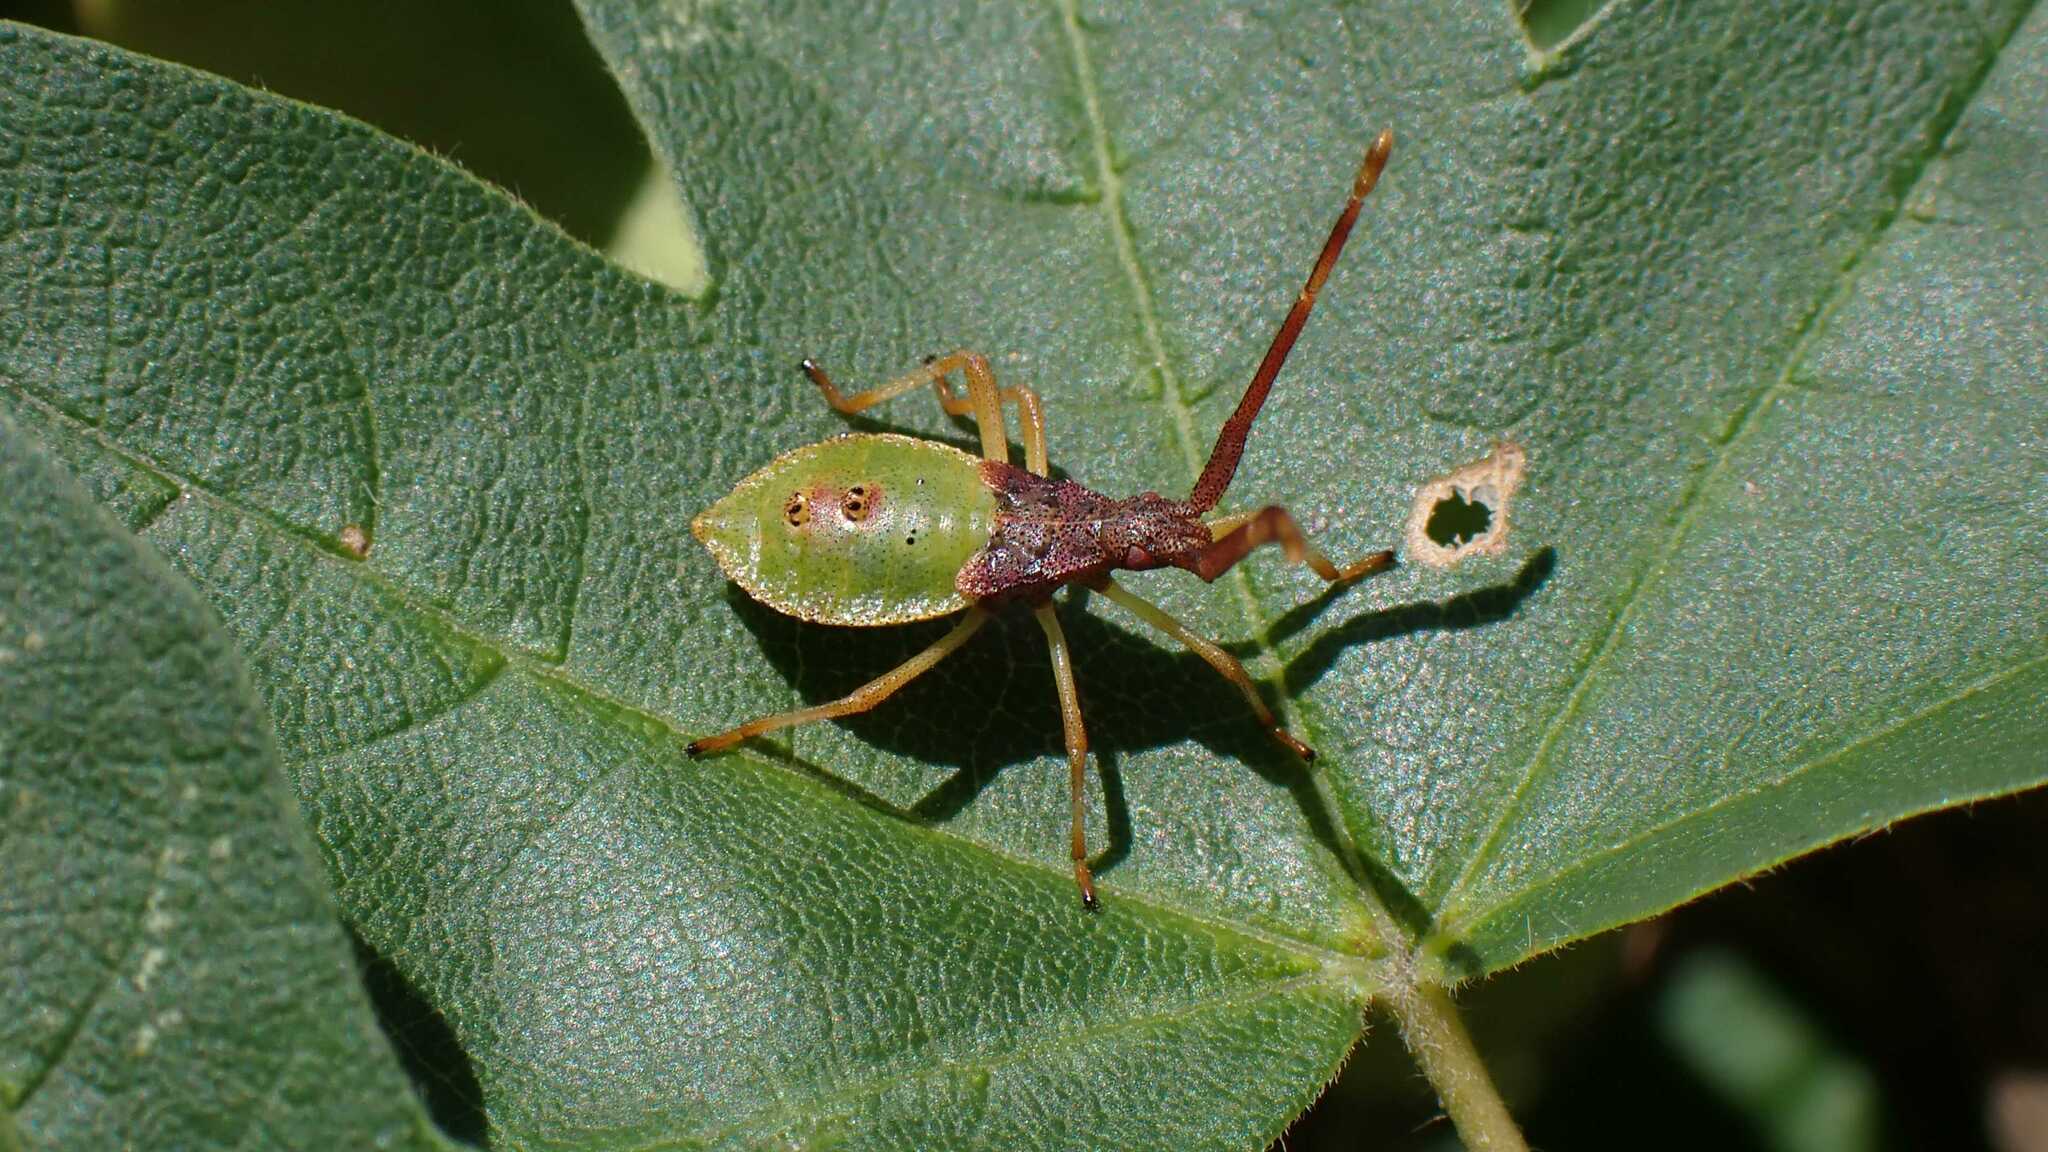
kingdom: Animalia
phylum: Arthropoda
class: Insecta
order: Hemiptera
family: Coreidae
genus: Gonocerus
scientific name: Gonocerus acuteangulatus
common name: Box bug
